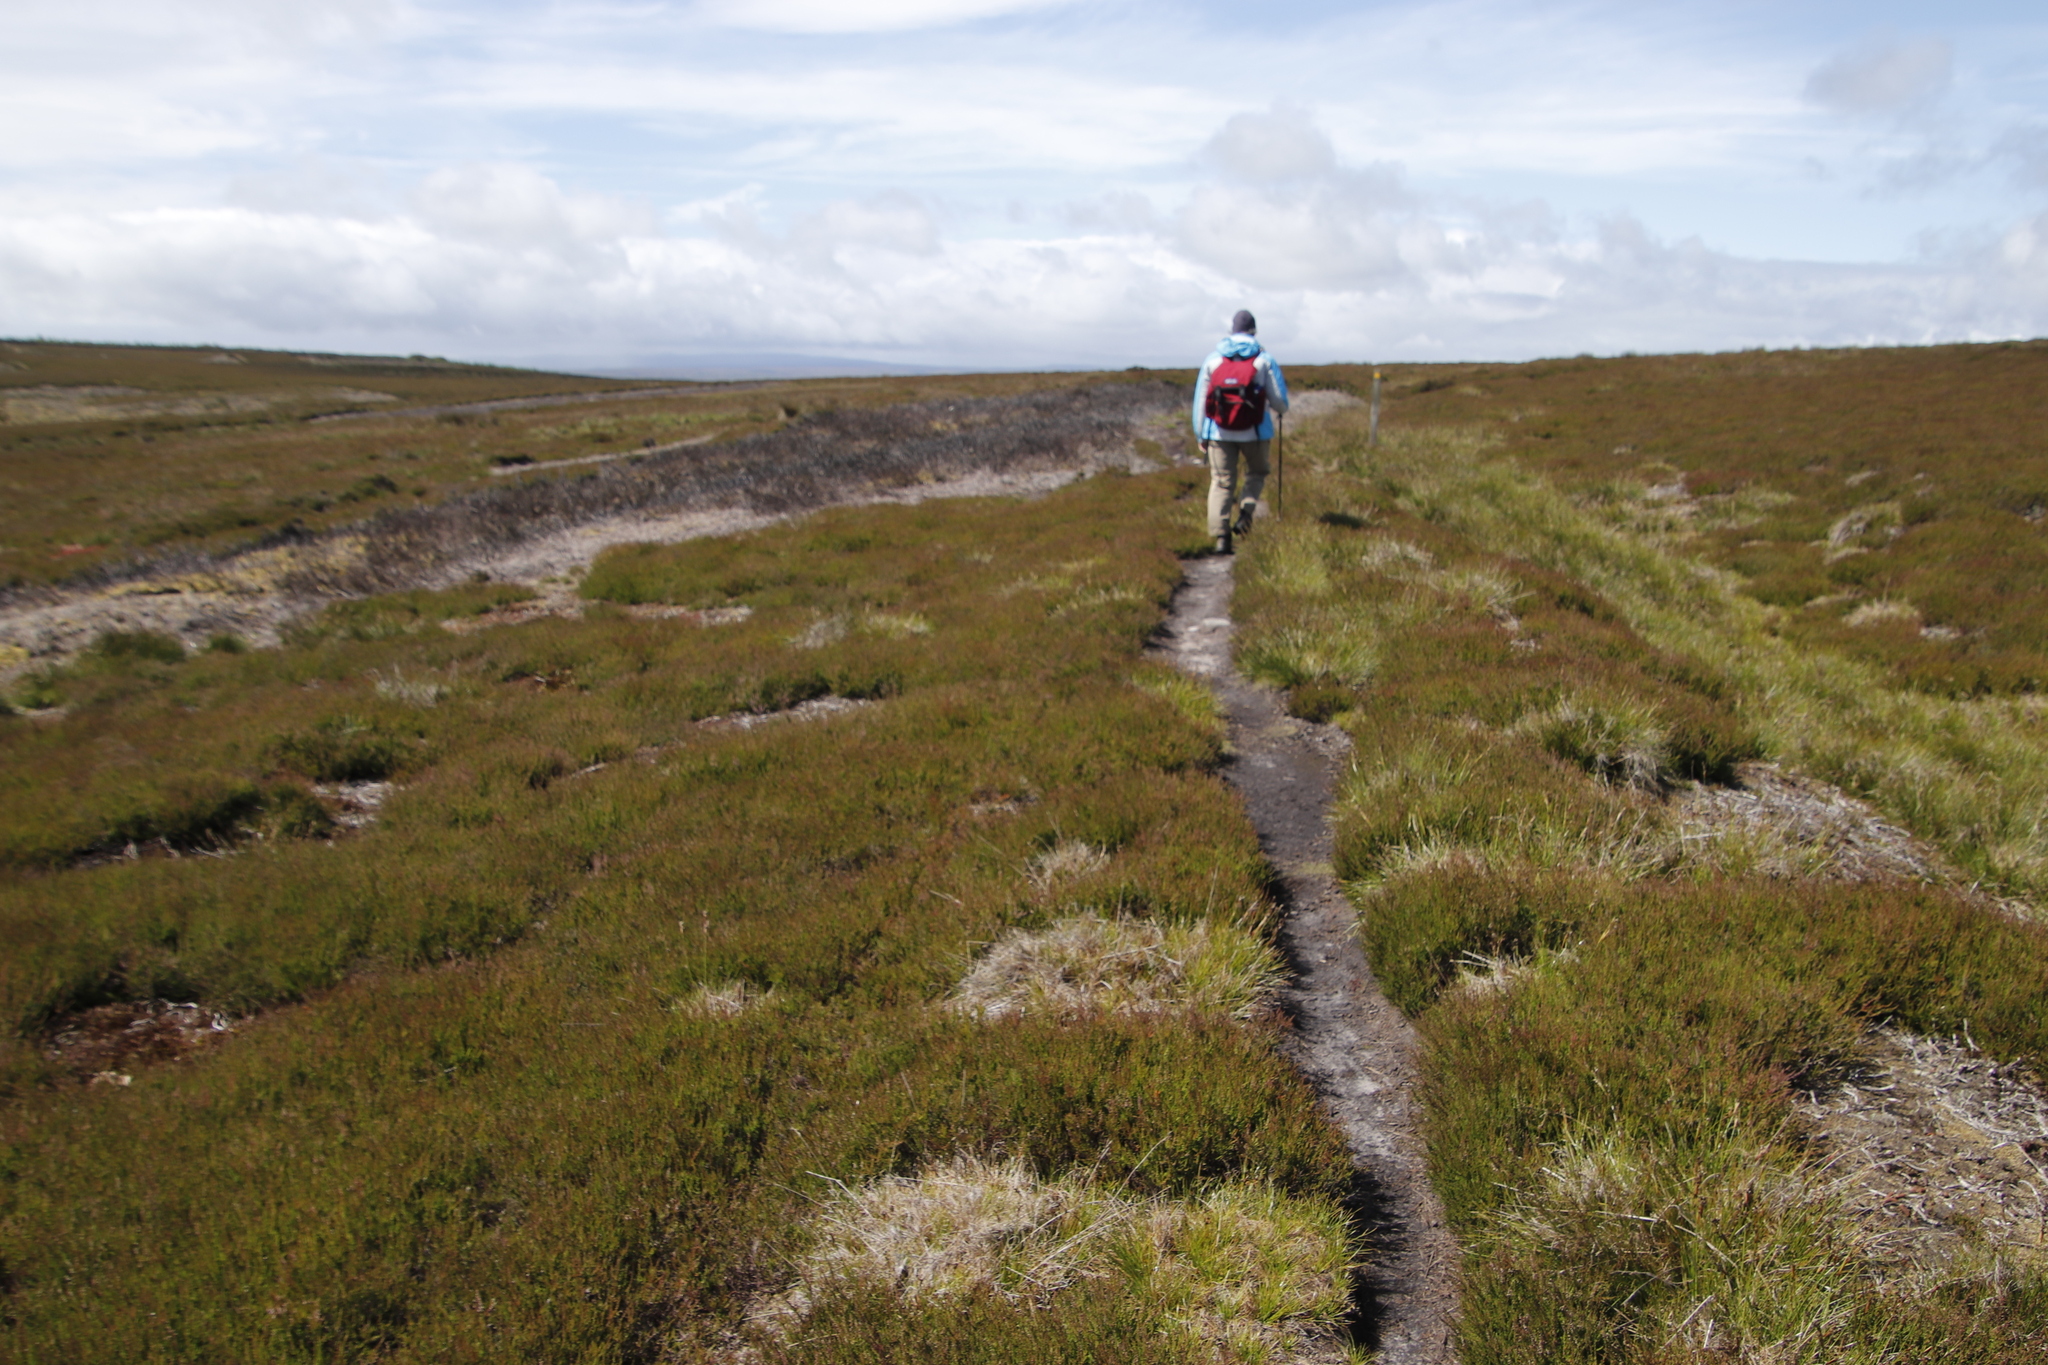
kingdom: Plantae
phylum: Tracheophyta
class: Magnoliopsida
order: Ericales
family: Ericaceae
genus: Calluna
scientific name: Calluna vulgaris
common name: Heather
